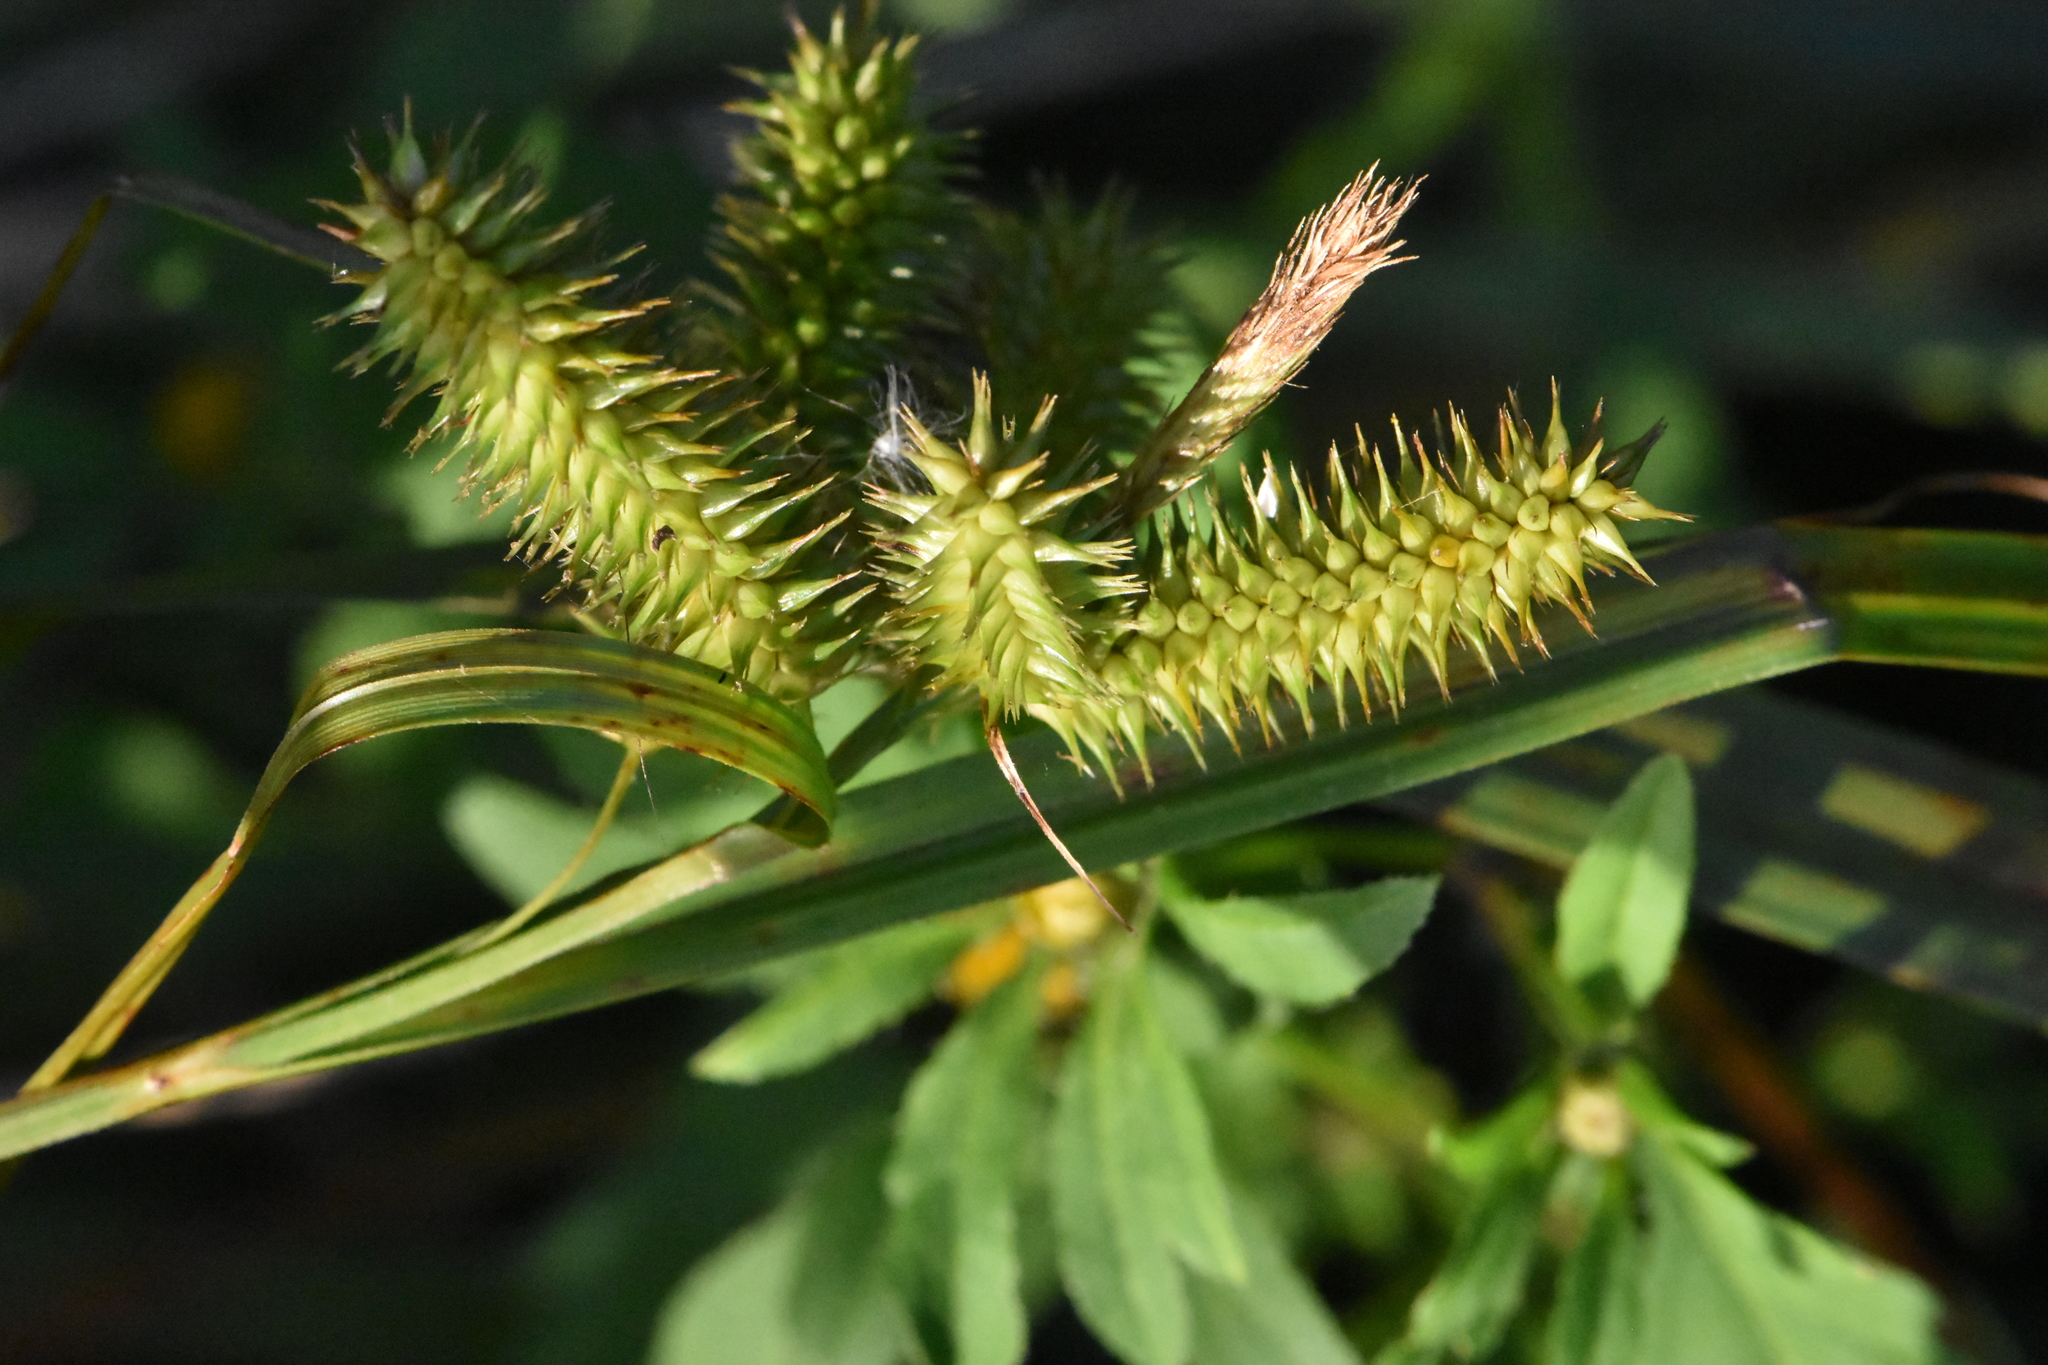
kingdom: Plantae
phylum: Tracheophyta
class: Liliopsida
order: Poales
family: Cyperaceae
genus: Carex
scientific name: Carex pseudocyperus
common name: Cyperus sedge
